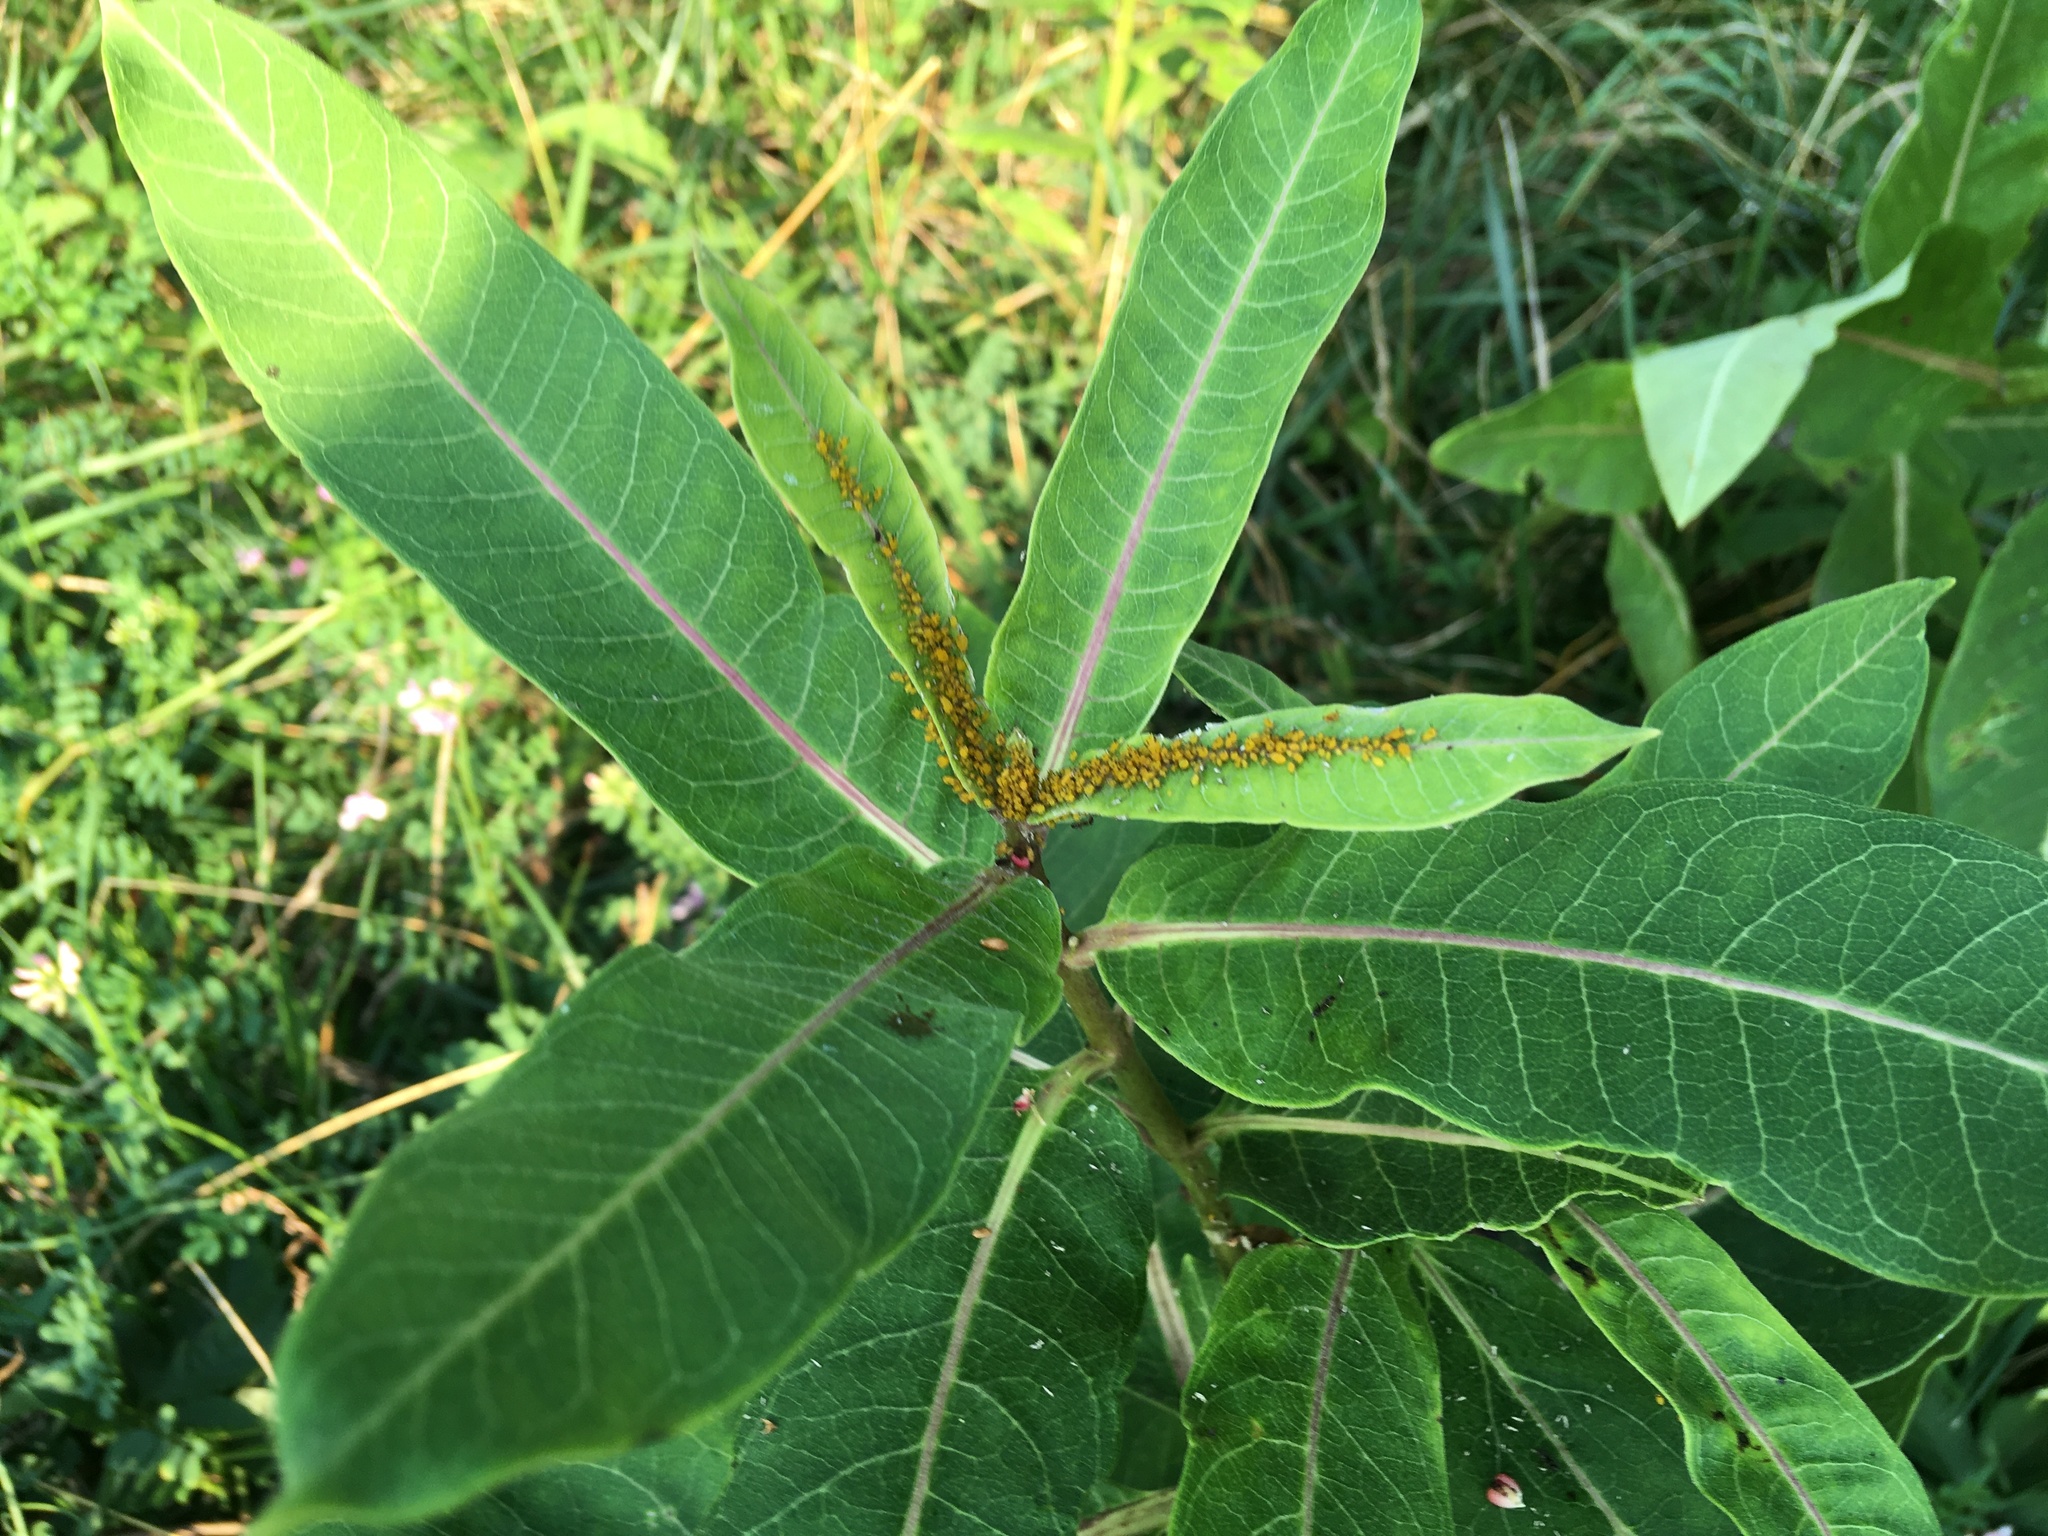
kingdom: Plantae
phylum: Tracheophyta
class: Magnoliopsida
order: Gentianales
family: Apocynaceae
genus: Asclepias
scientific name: Asclepias syriaca
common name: Common milkweed
